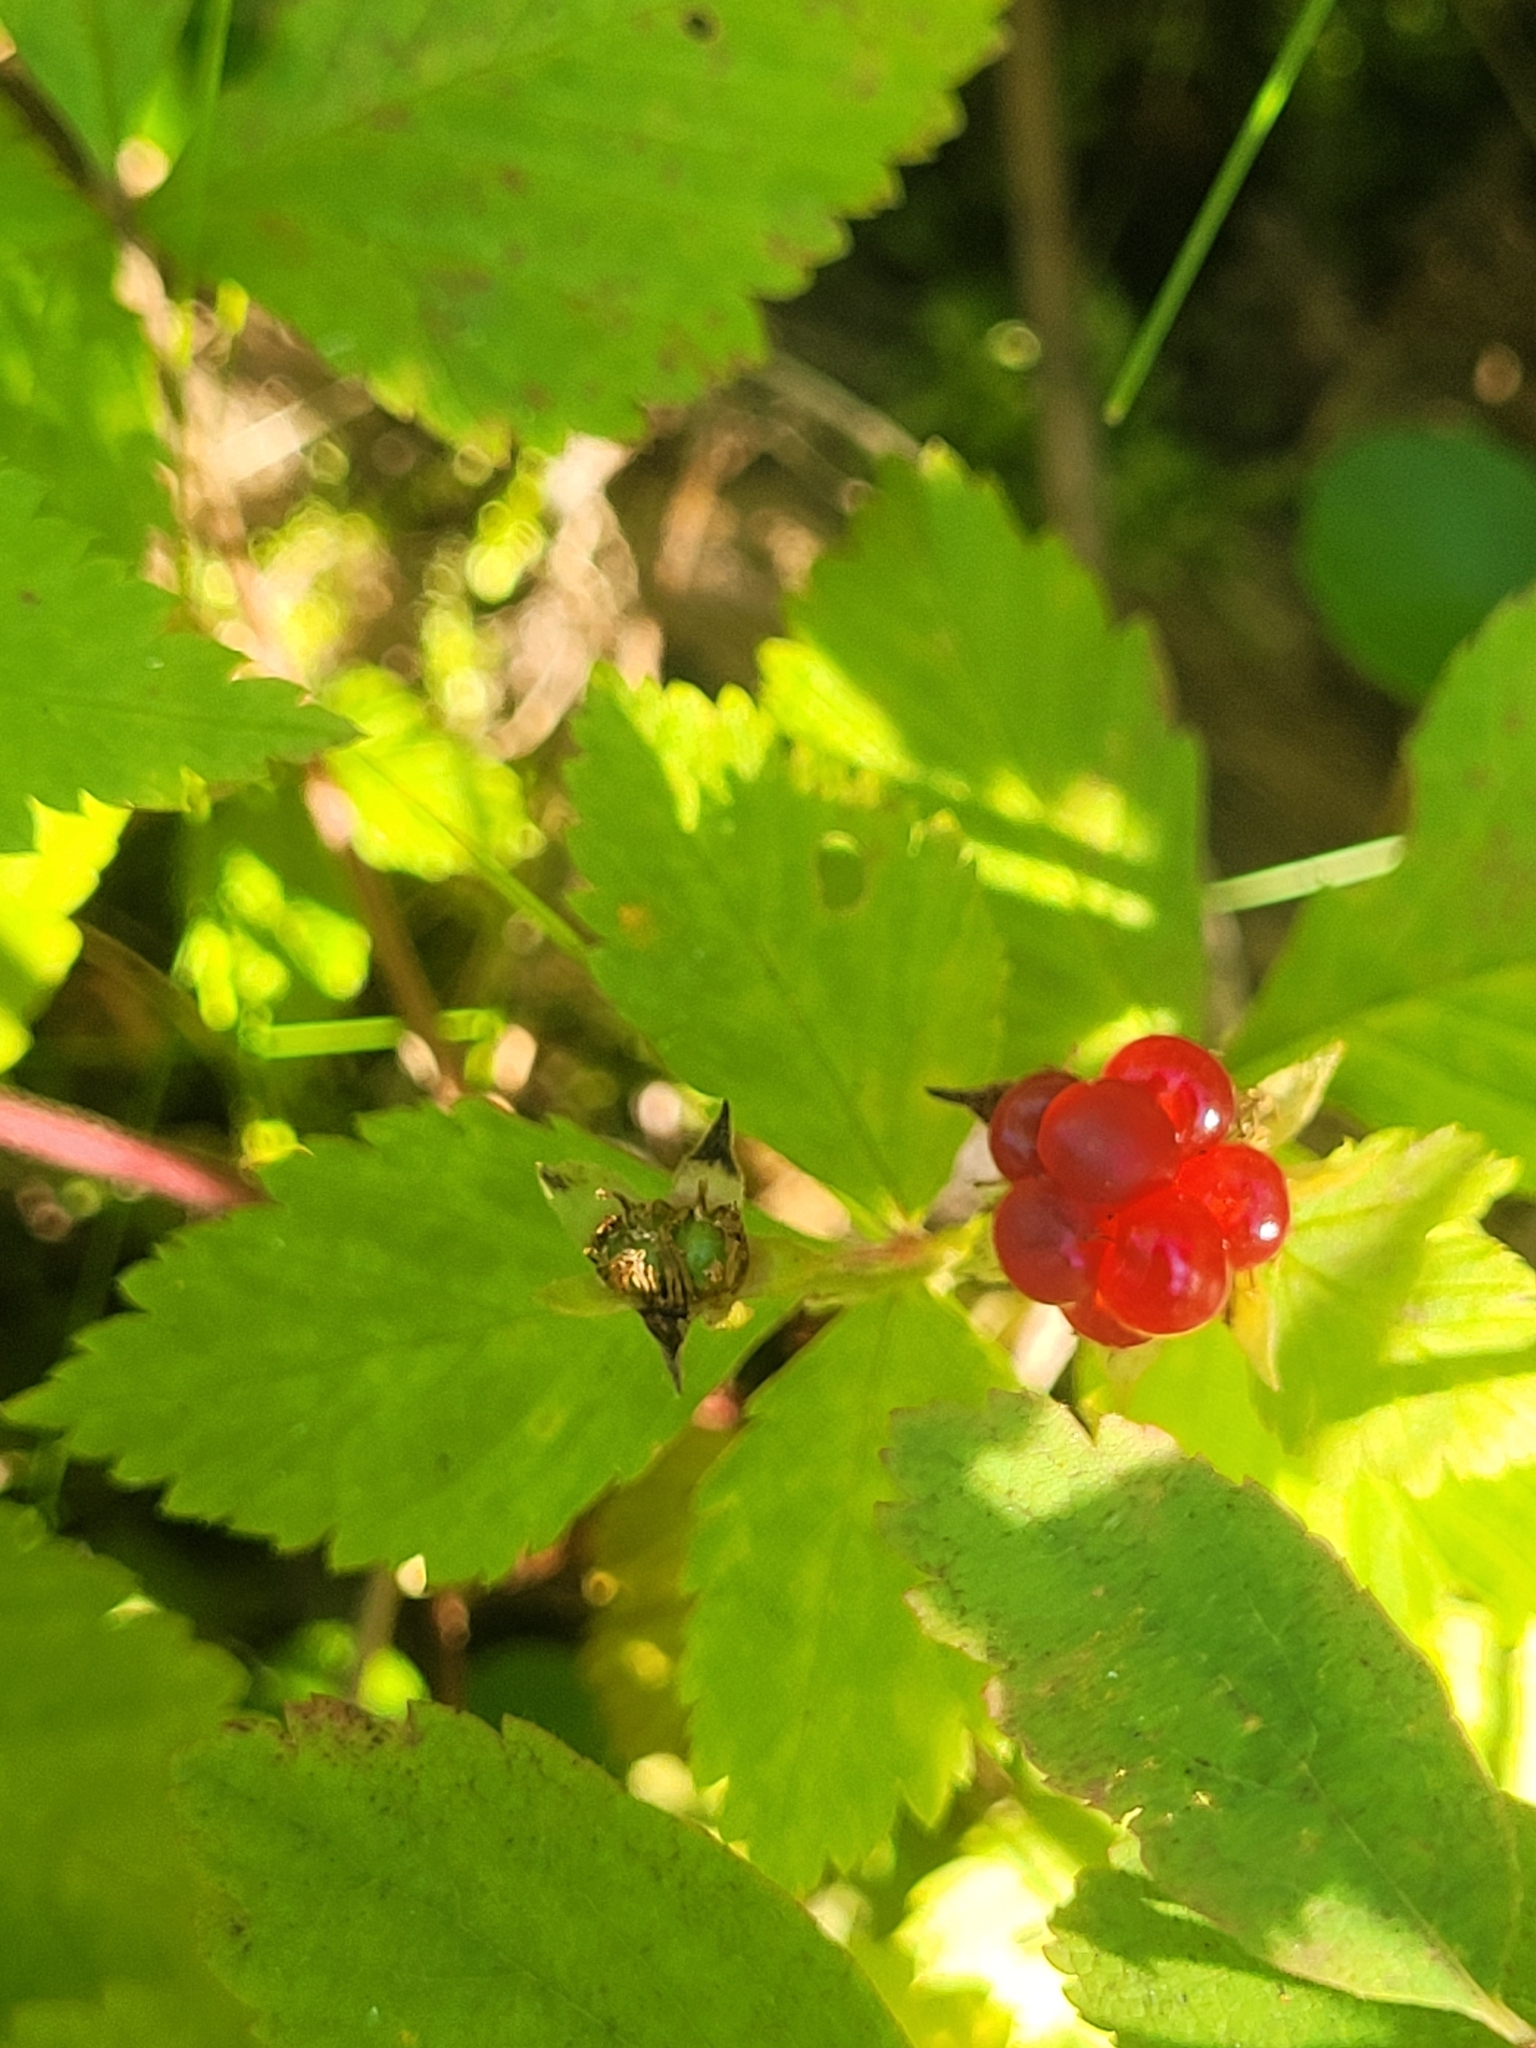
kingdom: Plantae
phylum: Tracheophyta
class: Magnoliopsida
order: Rosales
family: Rosaceae
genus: Rubus
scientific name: Rubus pubescens
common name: Dwarf raspberry
